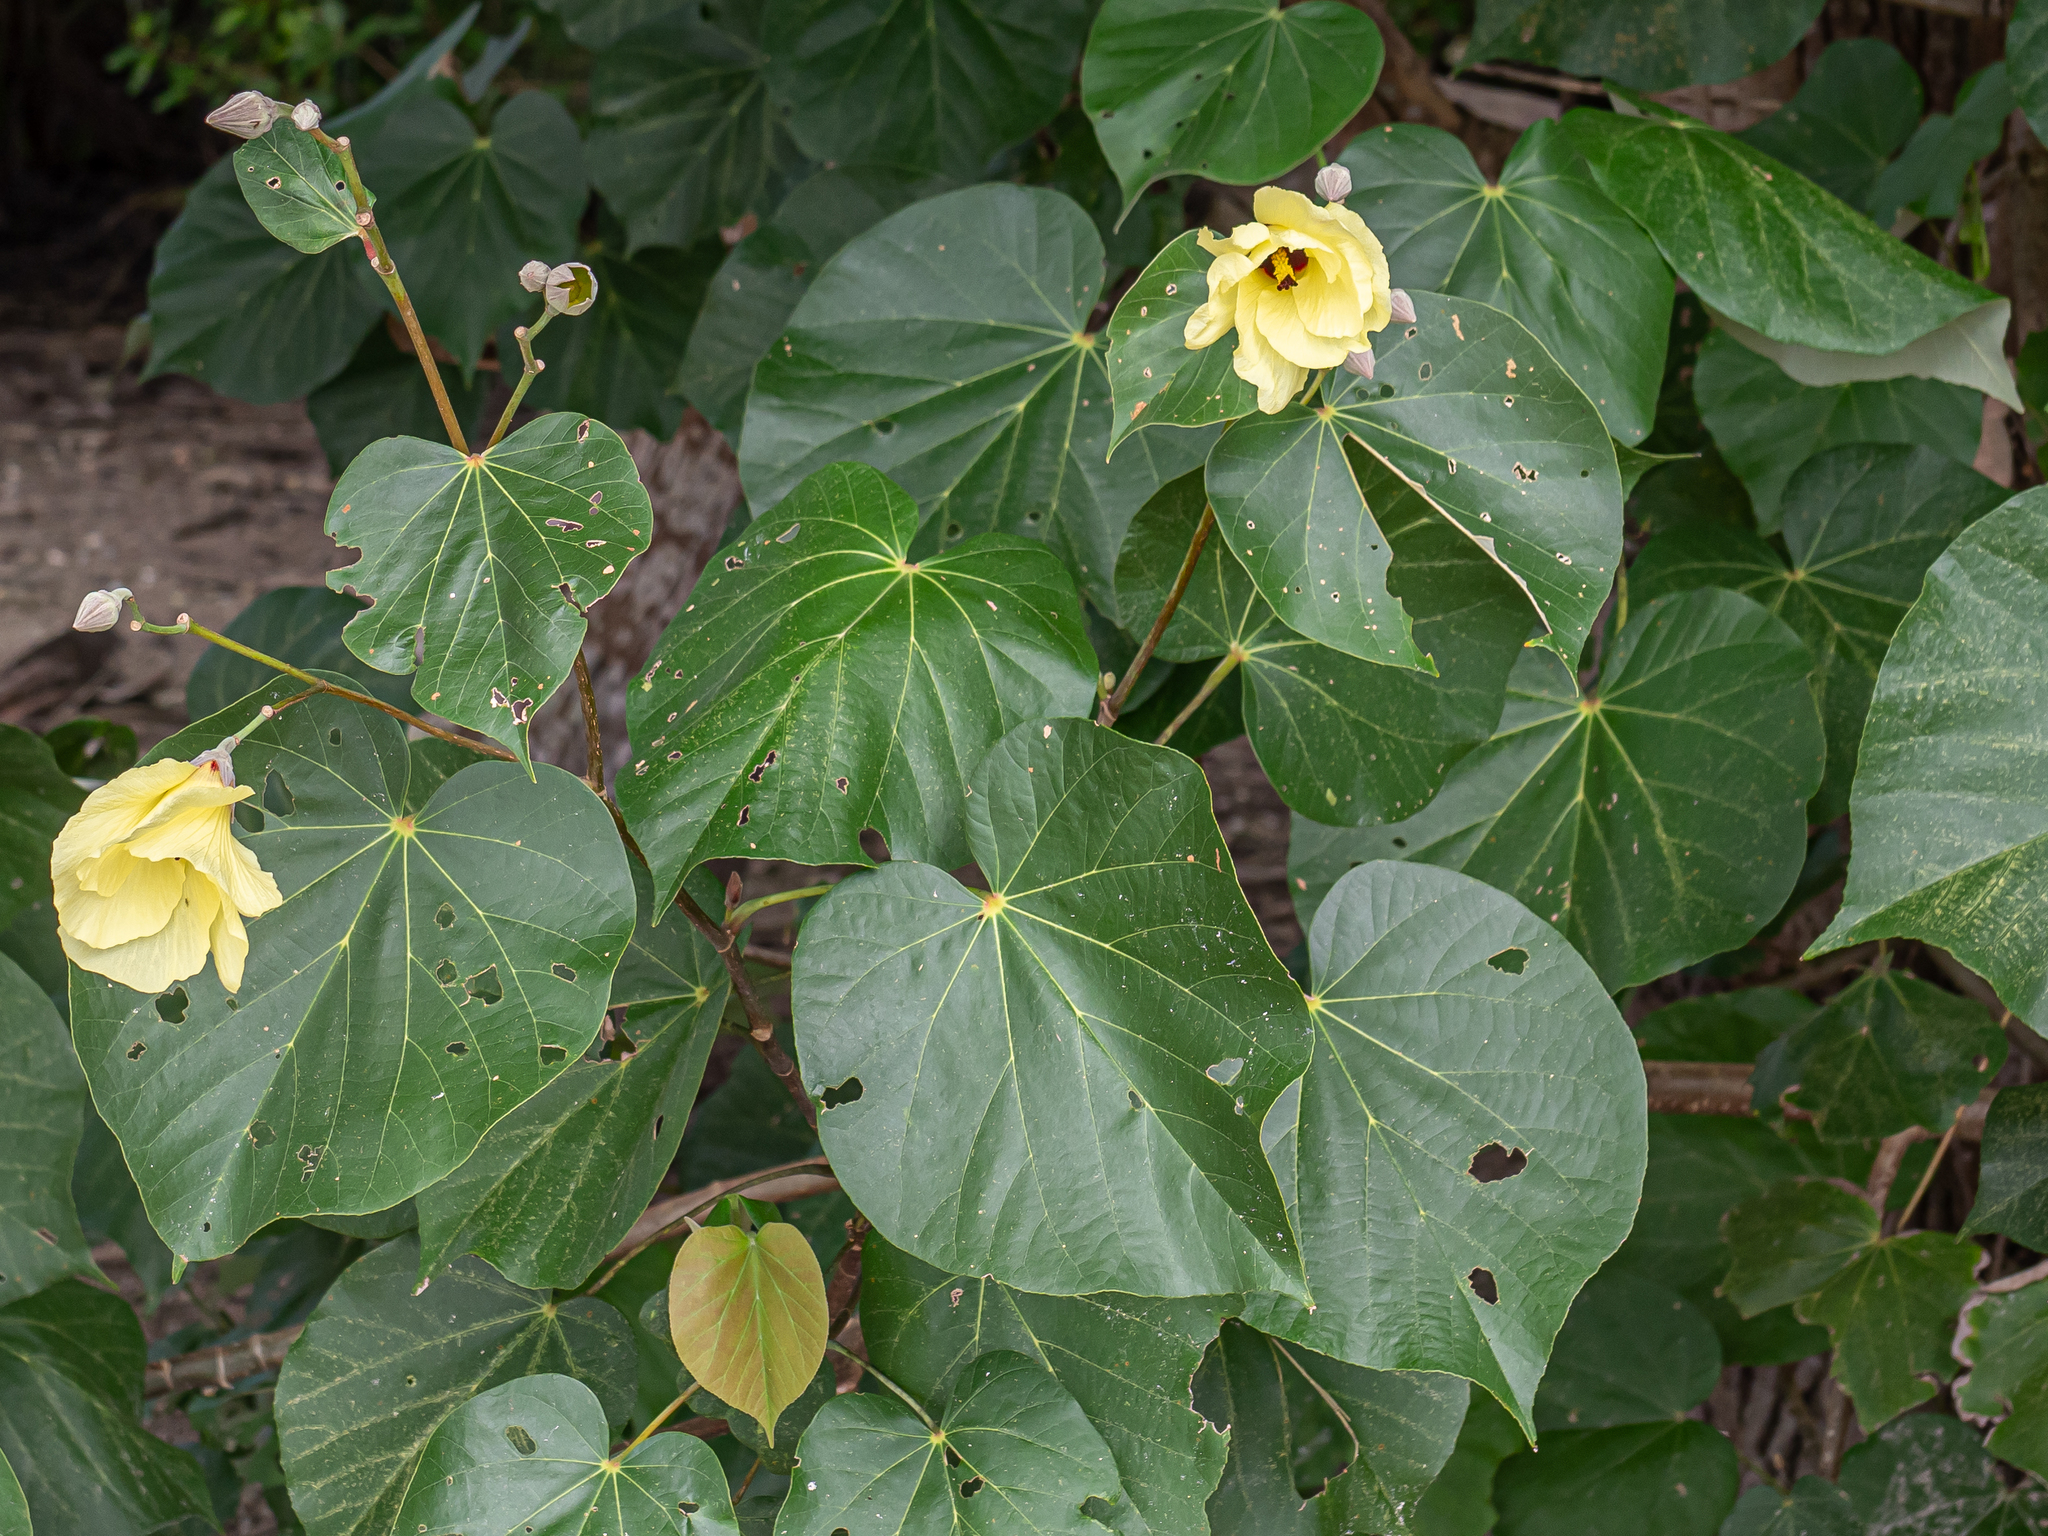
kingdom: Plantae
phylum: Tracheophyta
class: Magnoliopsida
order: Malvales
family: Malvaceae
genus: Talipariti
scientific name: Talipariti tiliaceum
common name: Sea hibiscus
